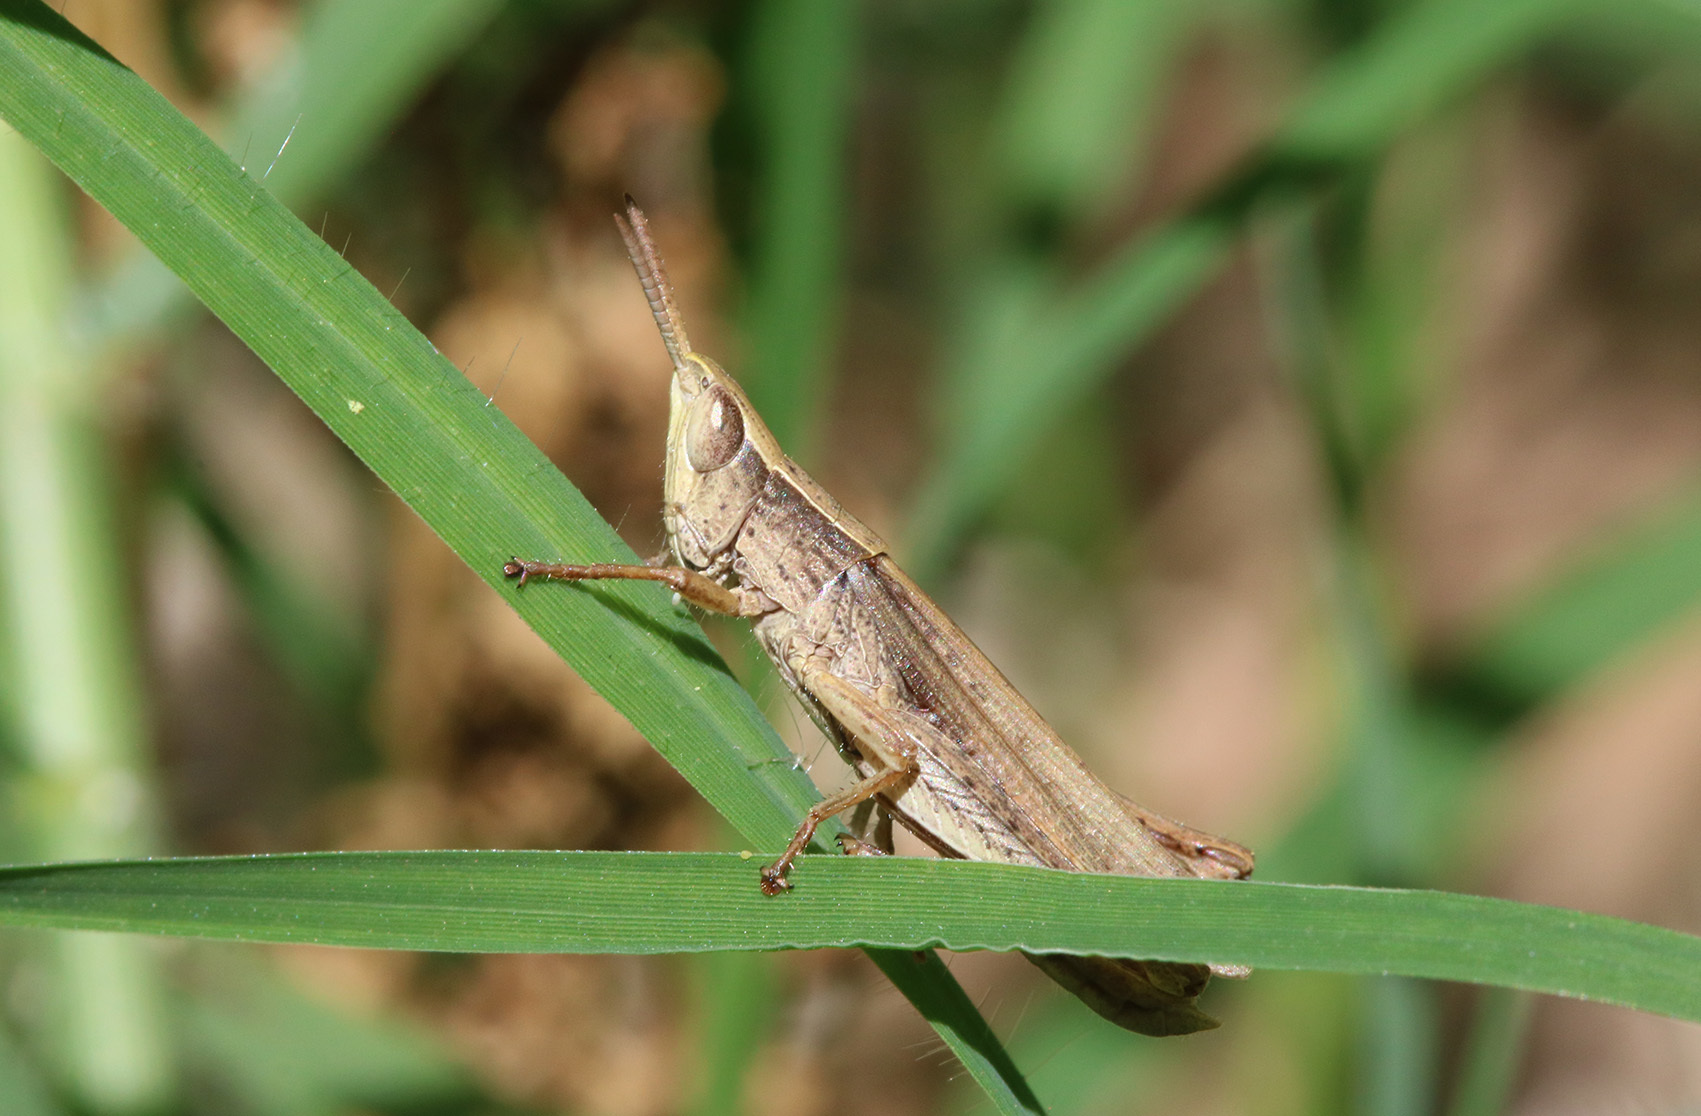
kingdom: Animalia
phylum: Arthropoda
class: Insecta
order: Orthoptera
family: Acrididae
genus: Laplatacris
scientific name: Laplatacris dispar
